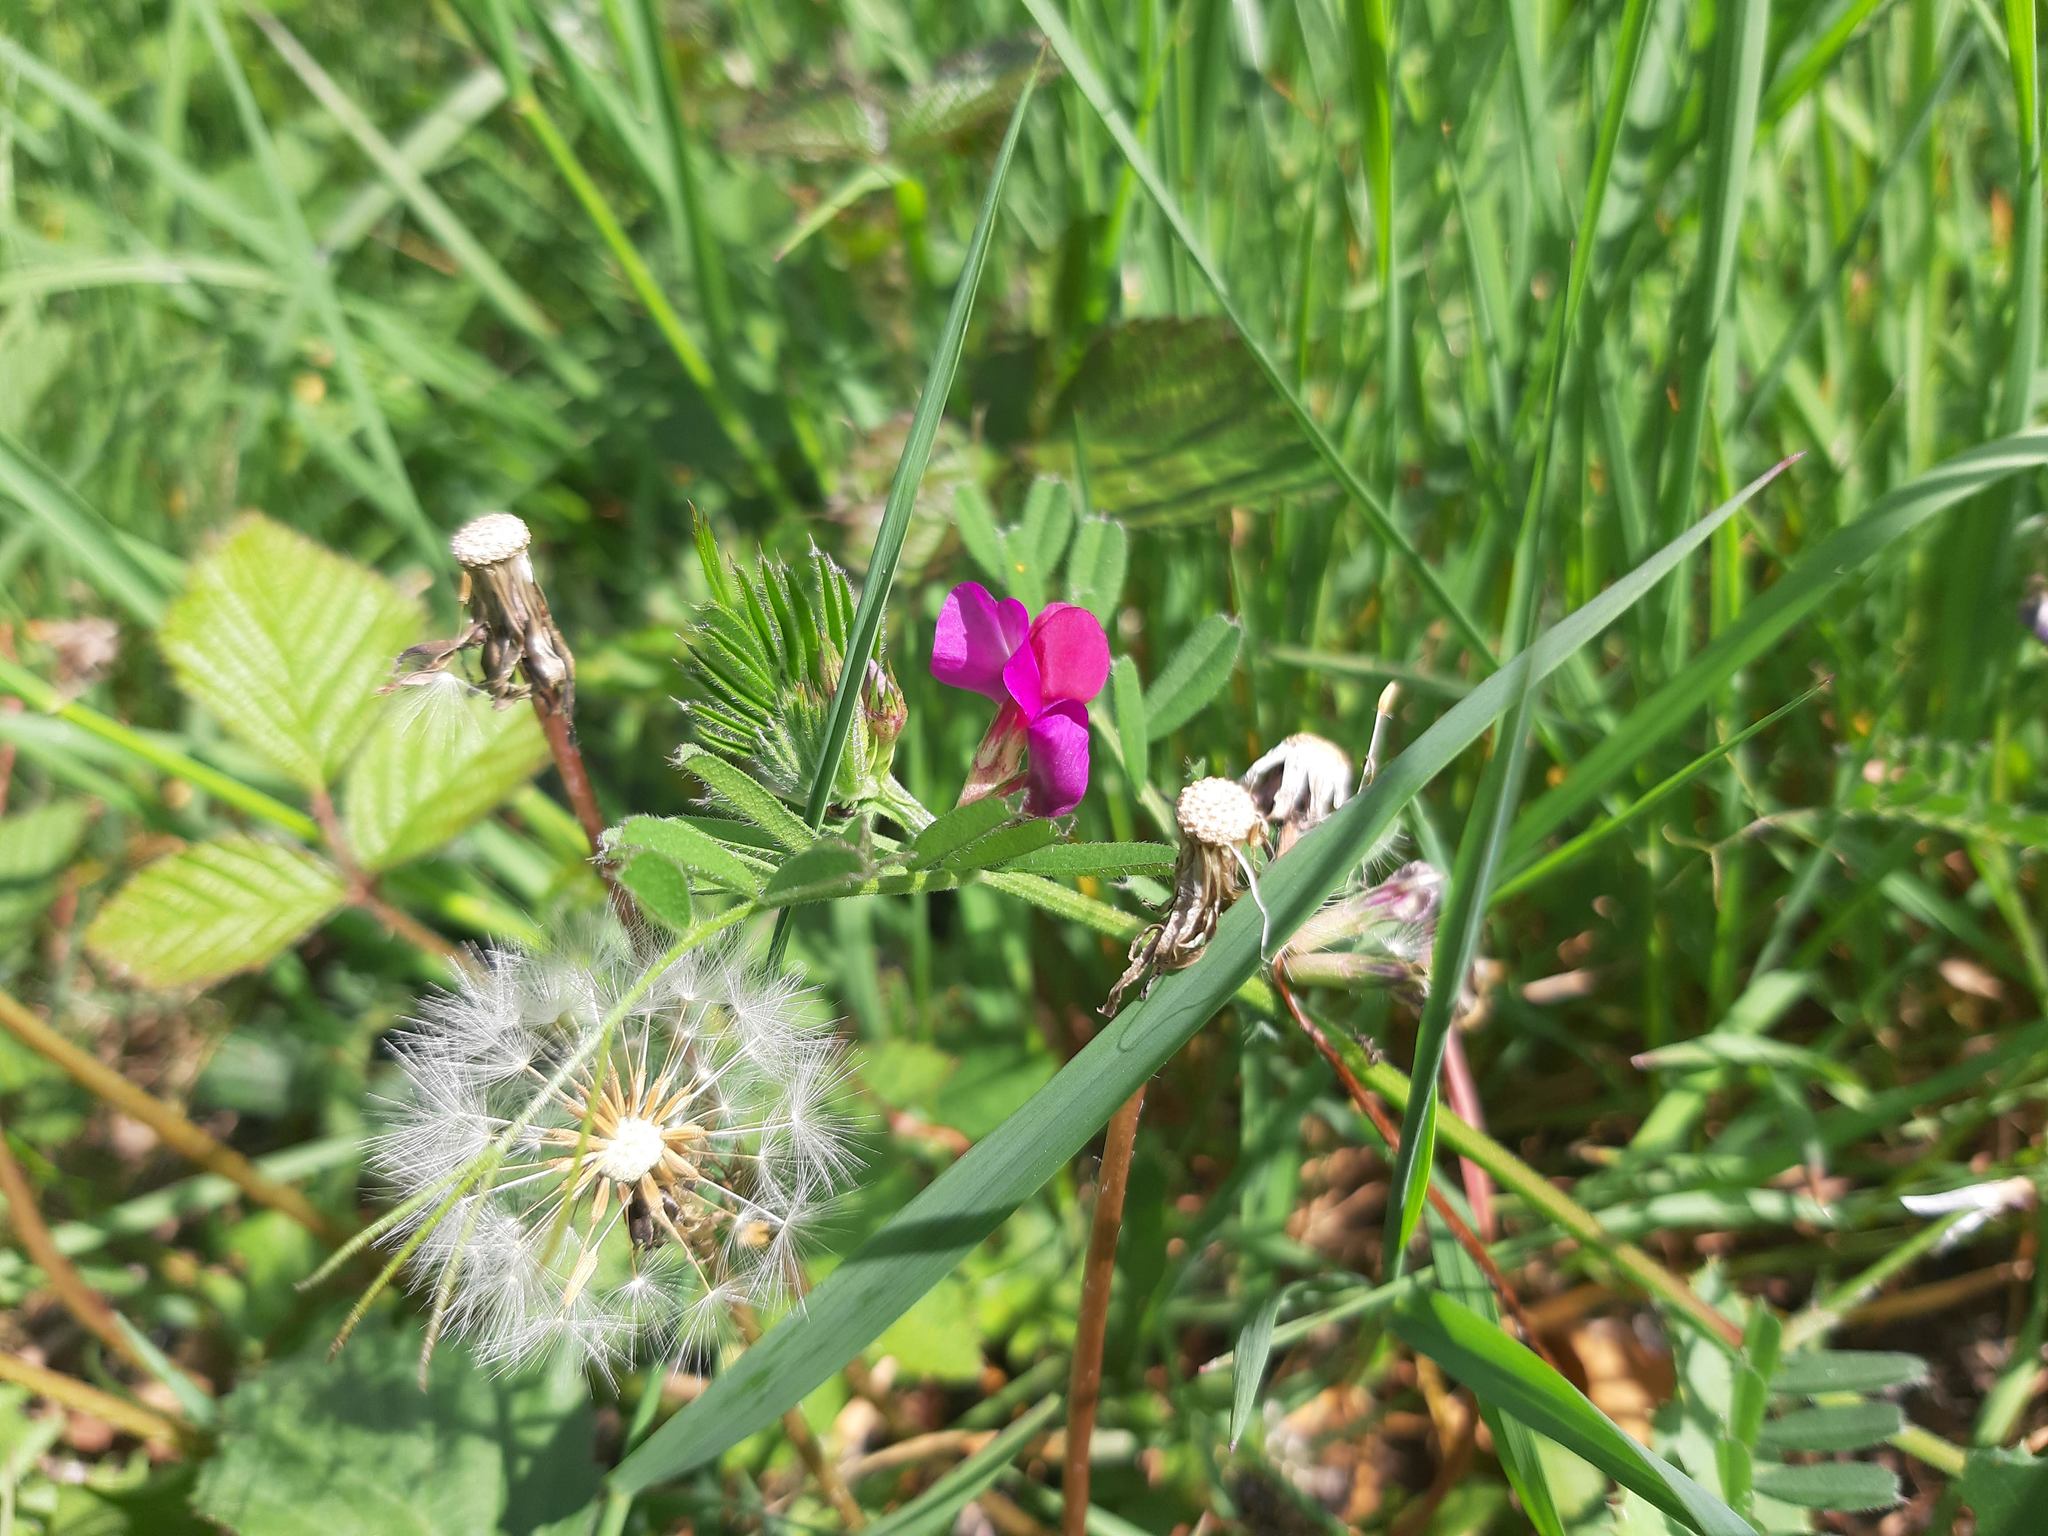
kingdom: Plantae
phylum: Tracheophyta
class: Magnoliopsida
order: Fabales
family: Fabaceae
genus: Vicia
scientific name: Vicia sativa
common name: Garden vetch
